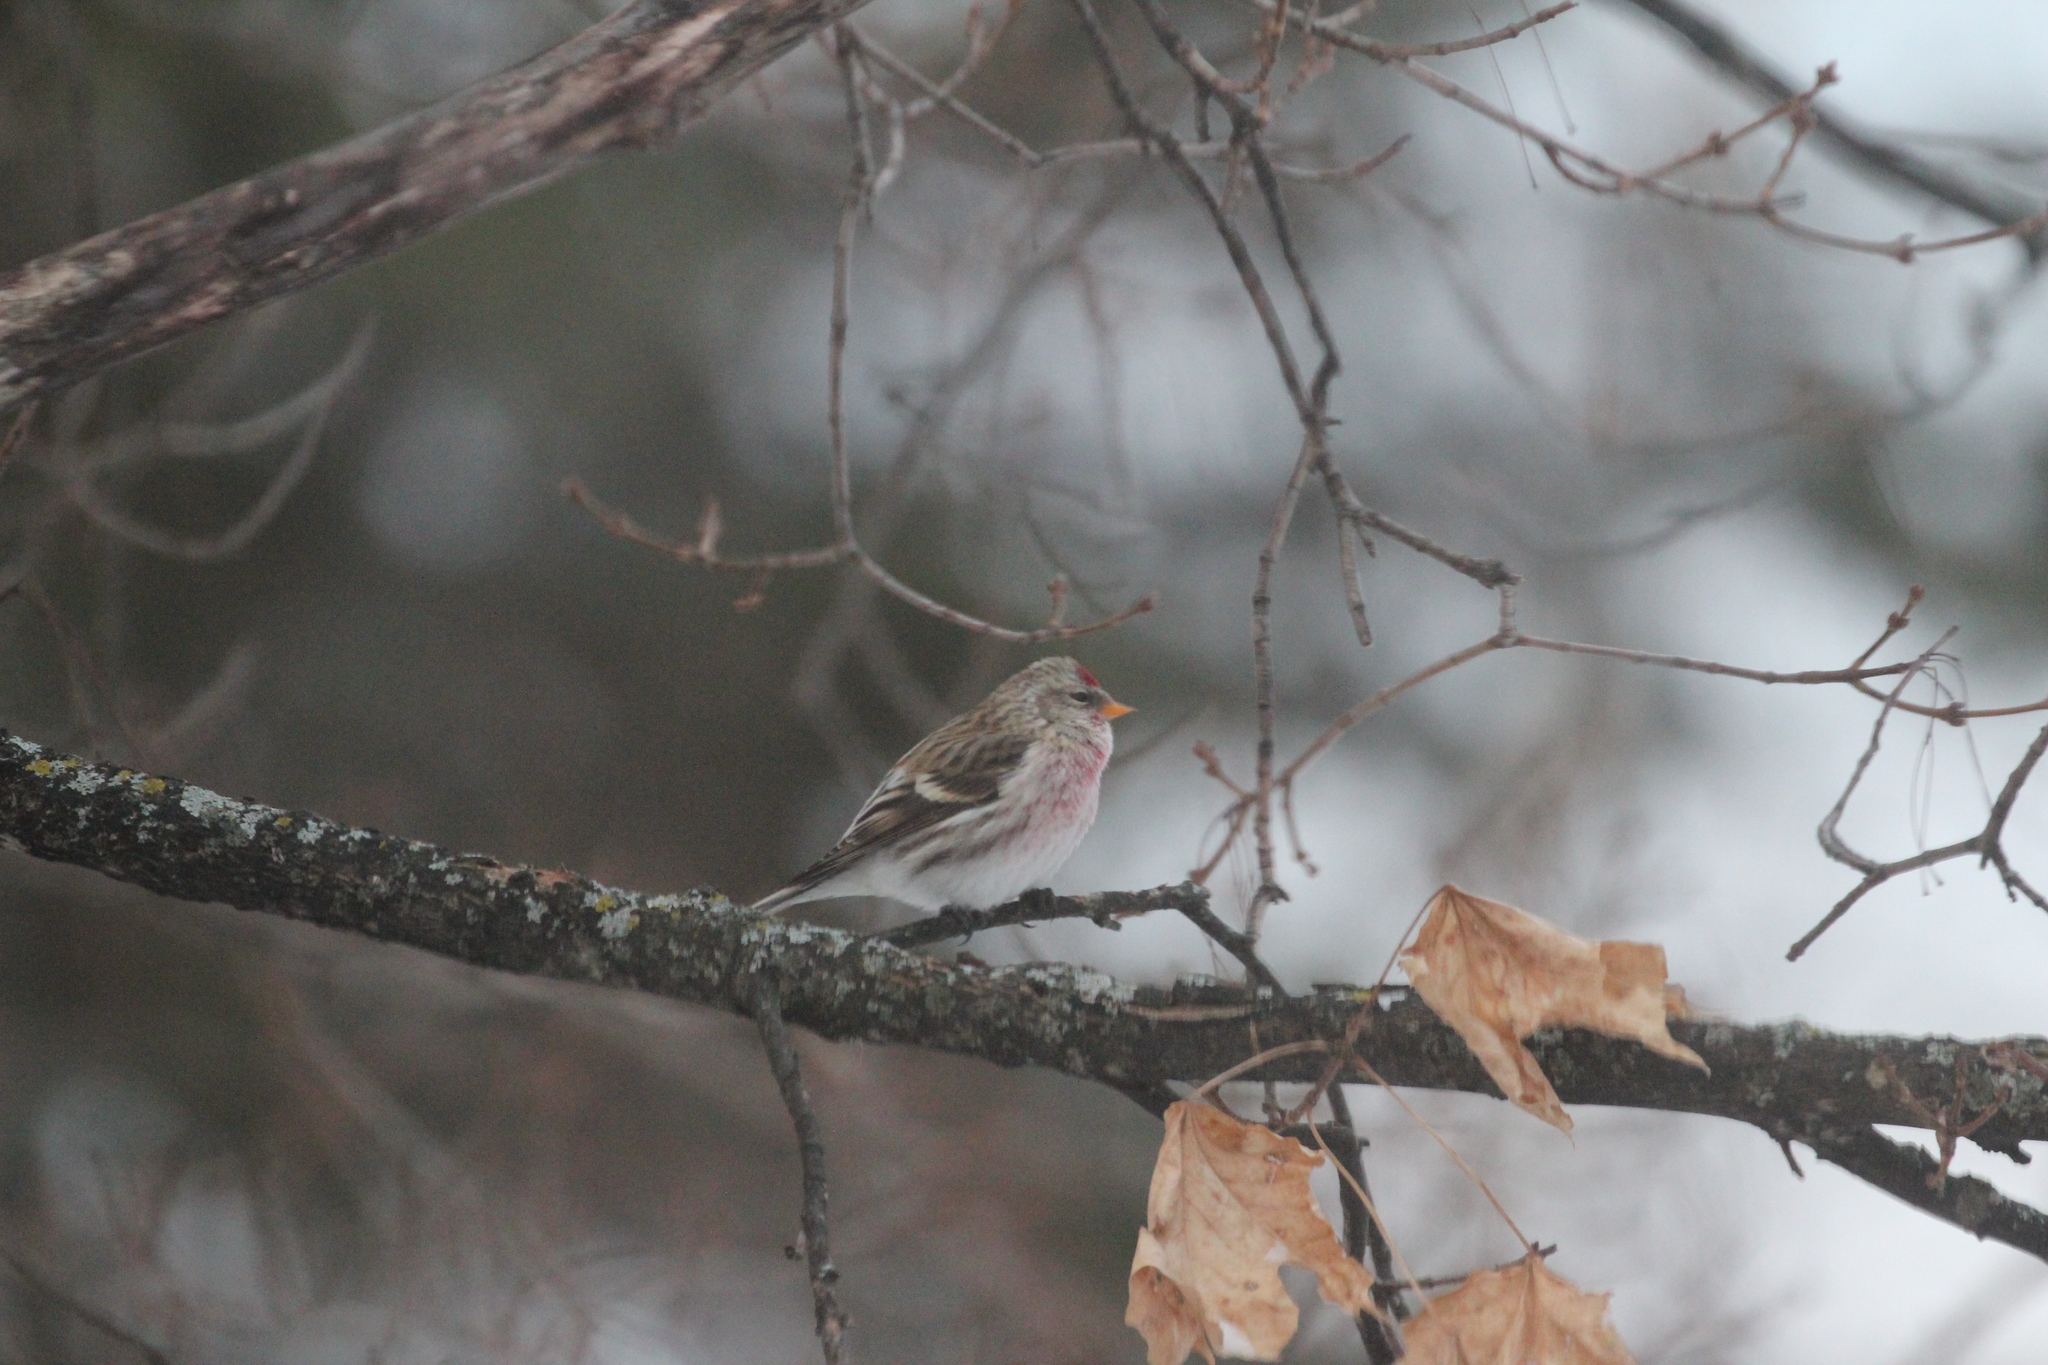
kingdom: Animalia
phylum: Chordata
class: Aves
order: Passeriformes
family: Fringillidae
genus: Acanthis
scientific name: Acanthis flammea
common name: Common redpoll
